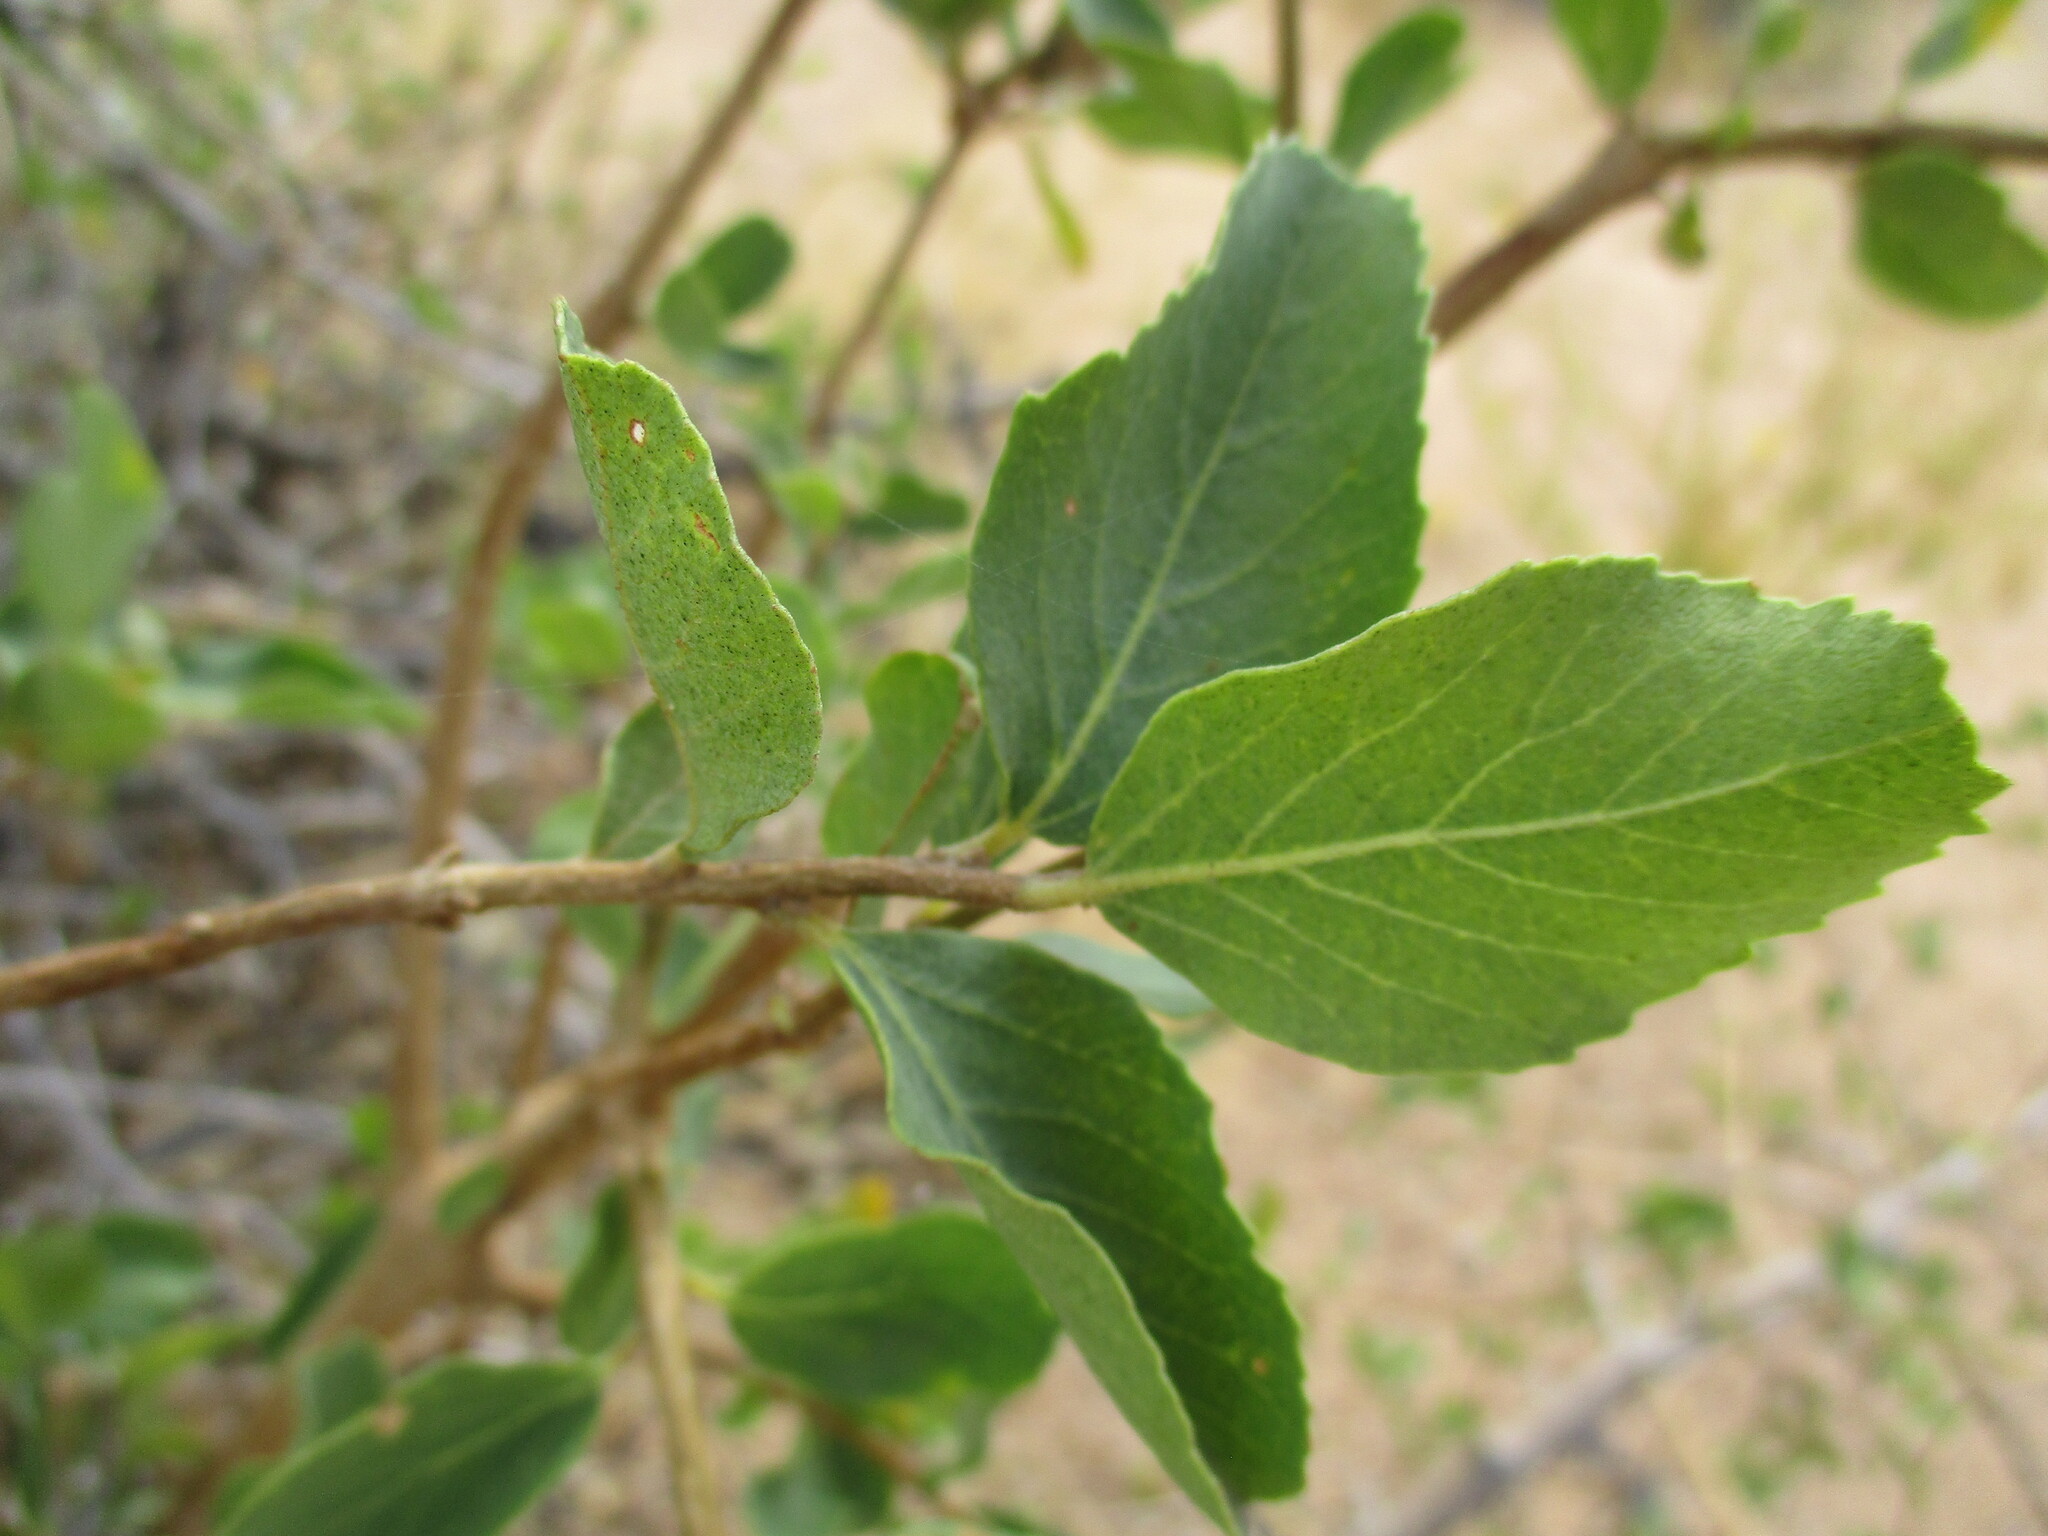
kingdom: Plantae
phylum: Tracheophyta
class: Magnoliopsida
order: Boraginales
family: Cordiaceae
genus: Cordia
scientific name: Cordia sinensis
